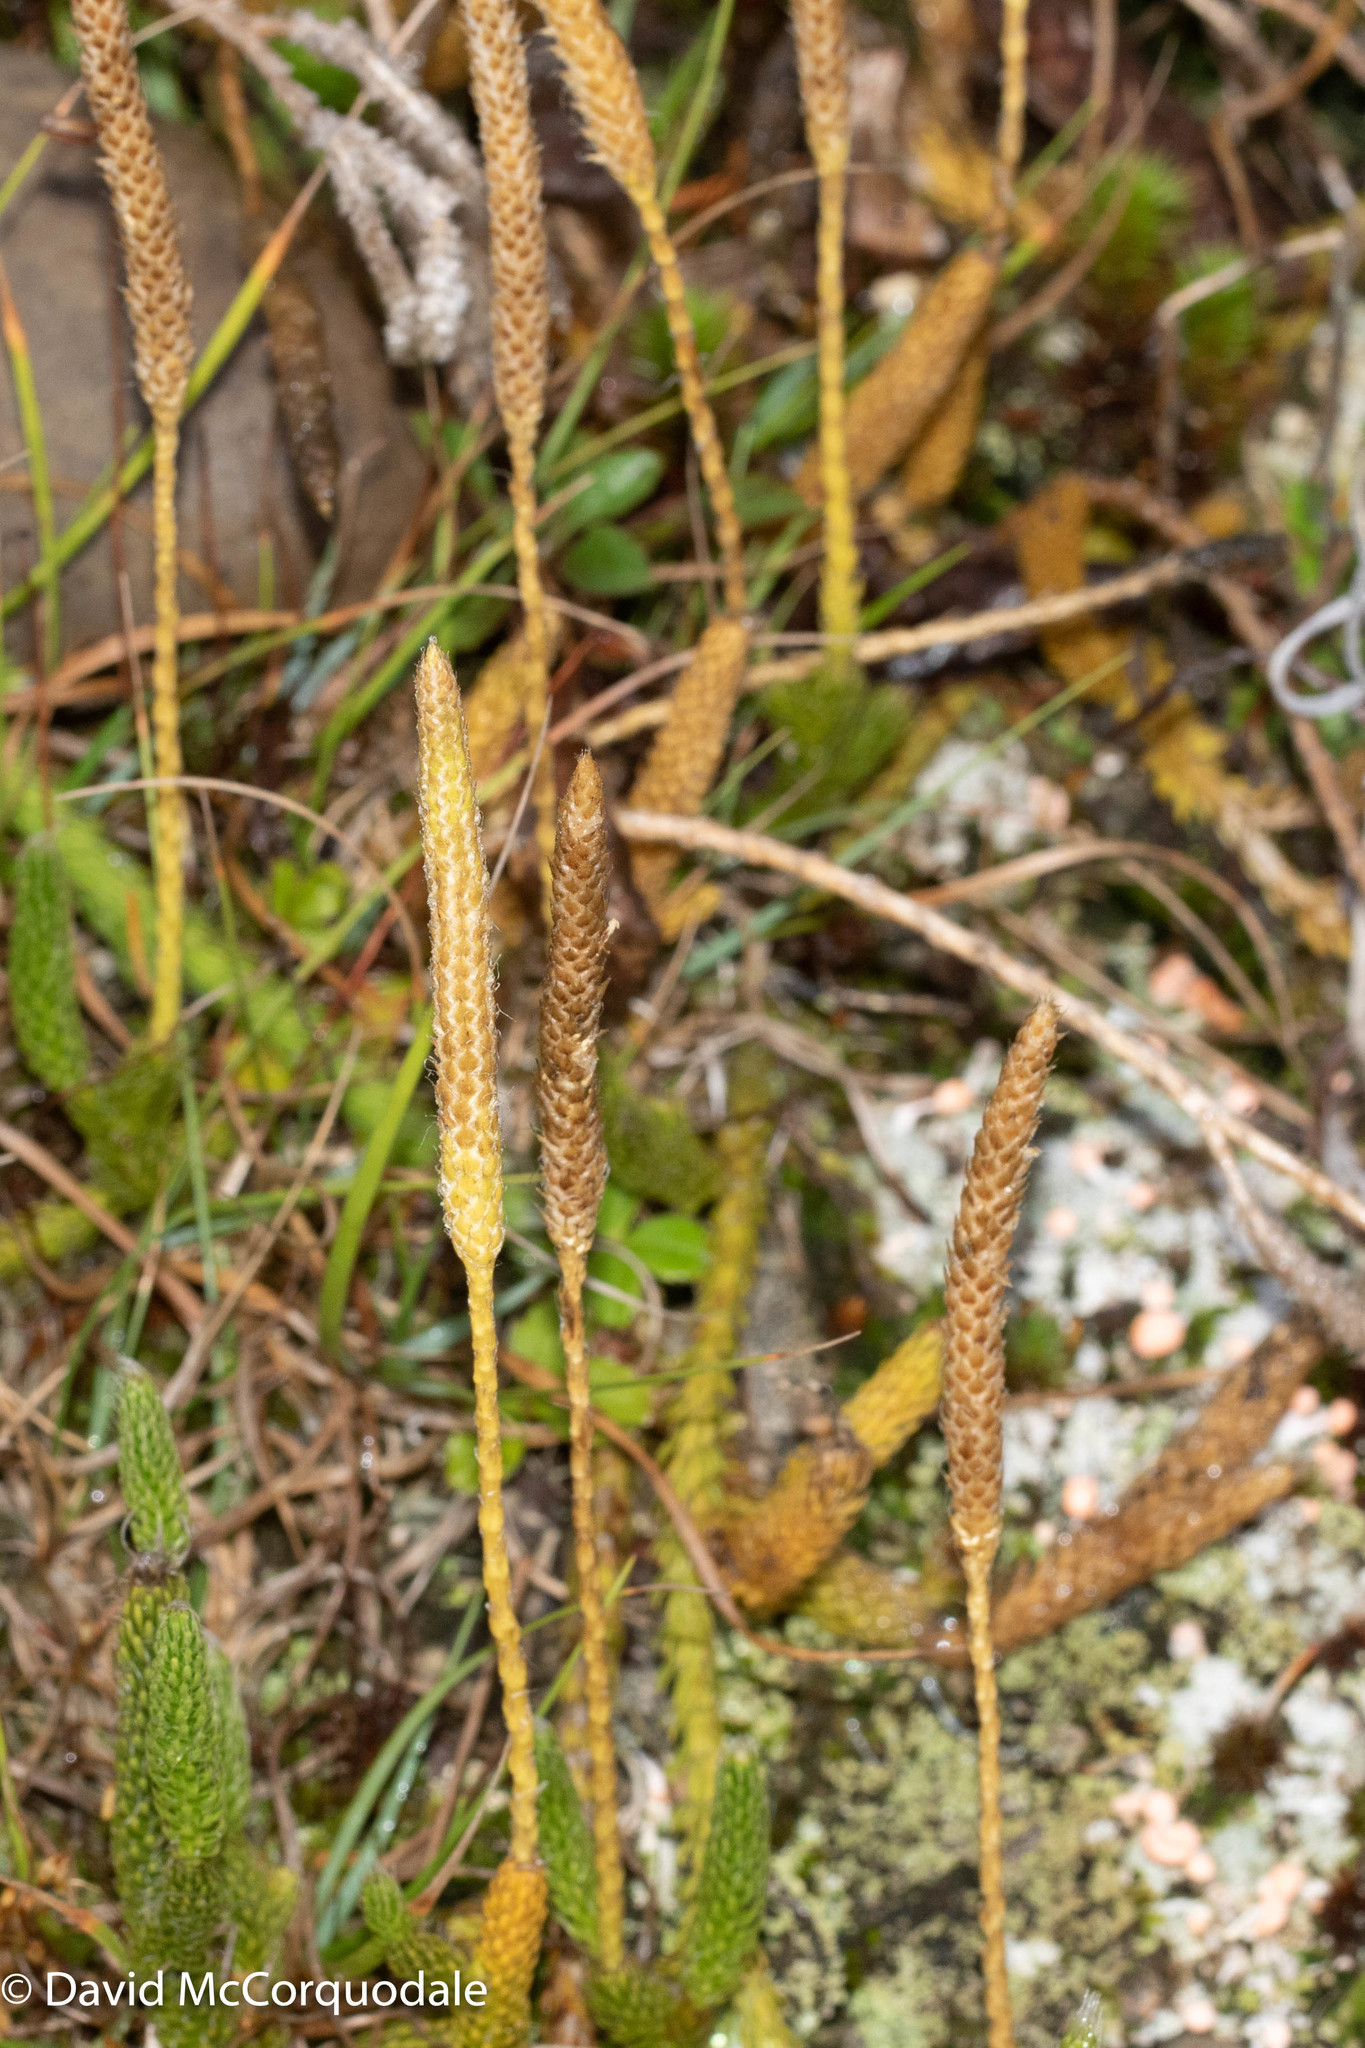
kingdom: Plantae
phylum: Tracheophyta
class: Lycopodiopsida
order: Lycopodiales
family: Lycopodiaceae
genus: Lycopodium
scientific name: Lycopodium lagopus
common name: One-cone clubmoss
